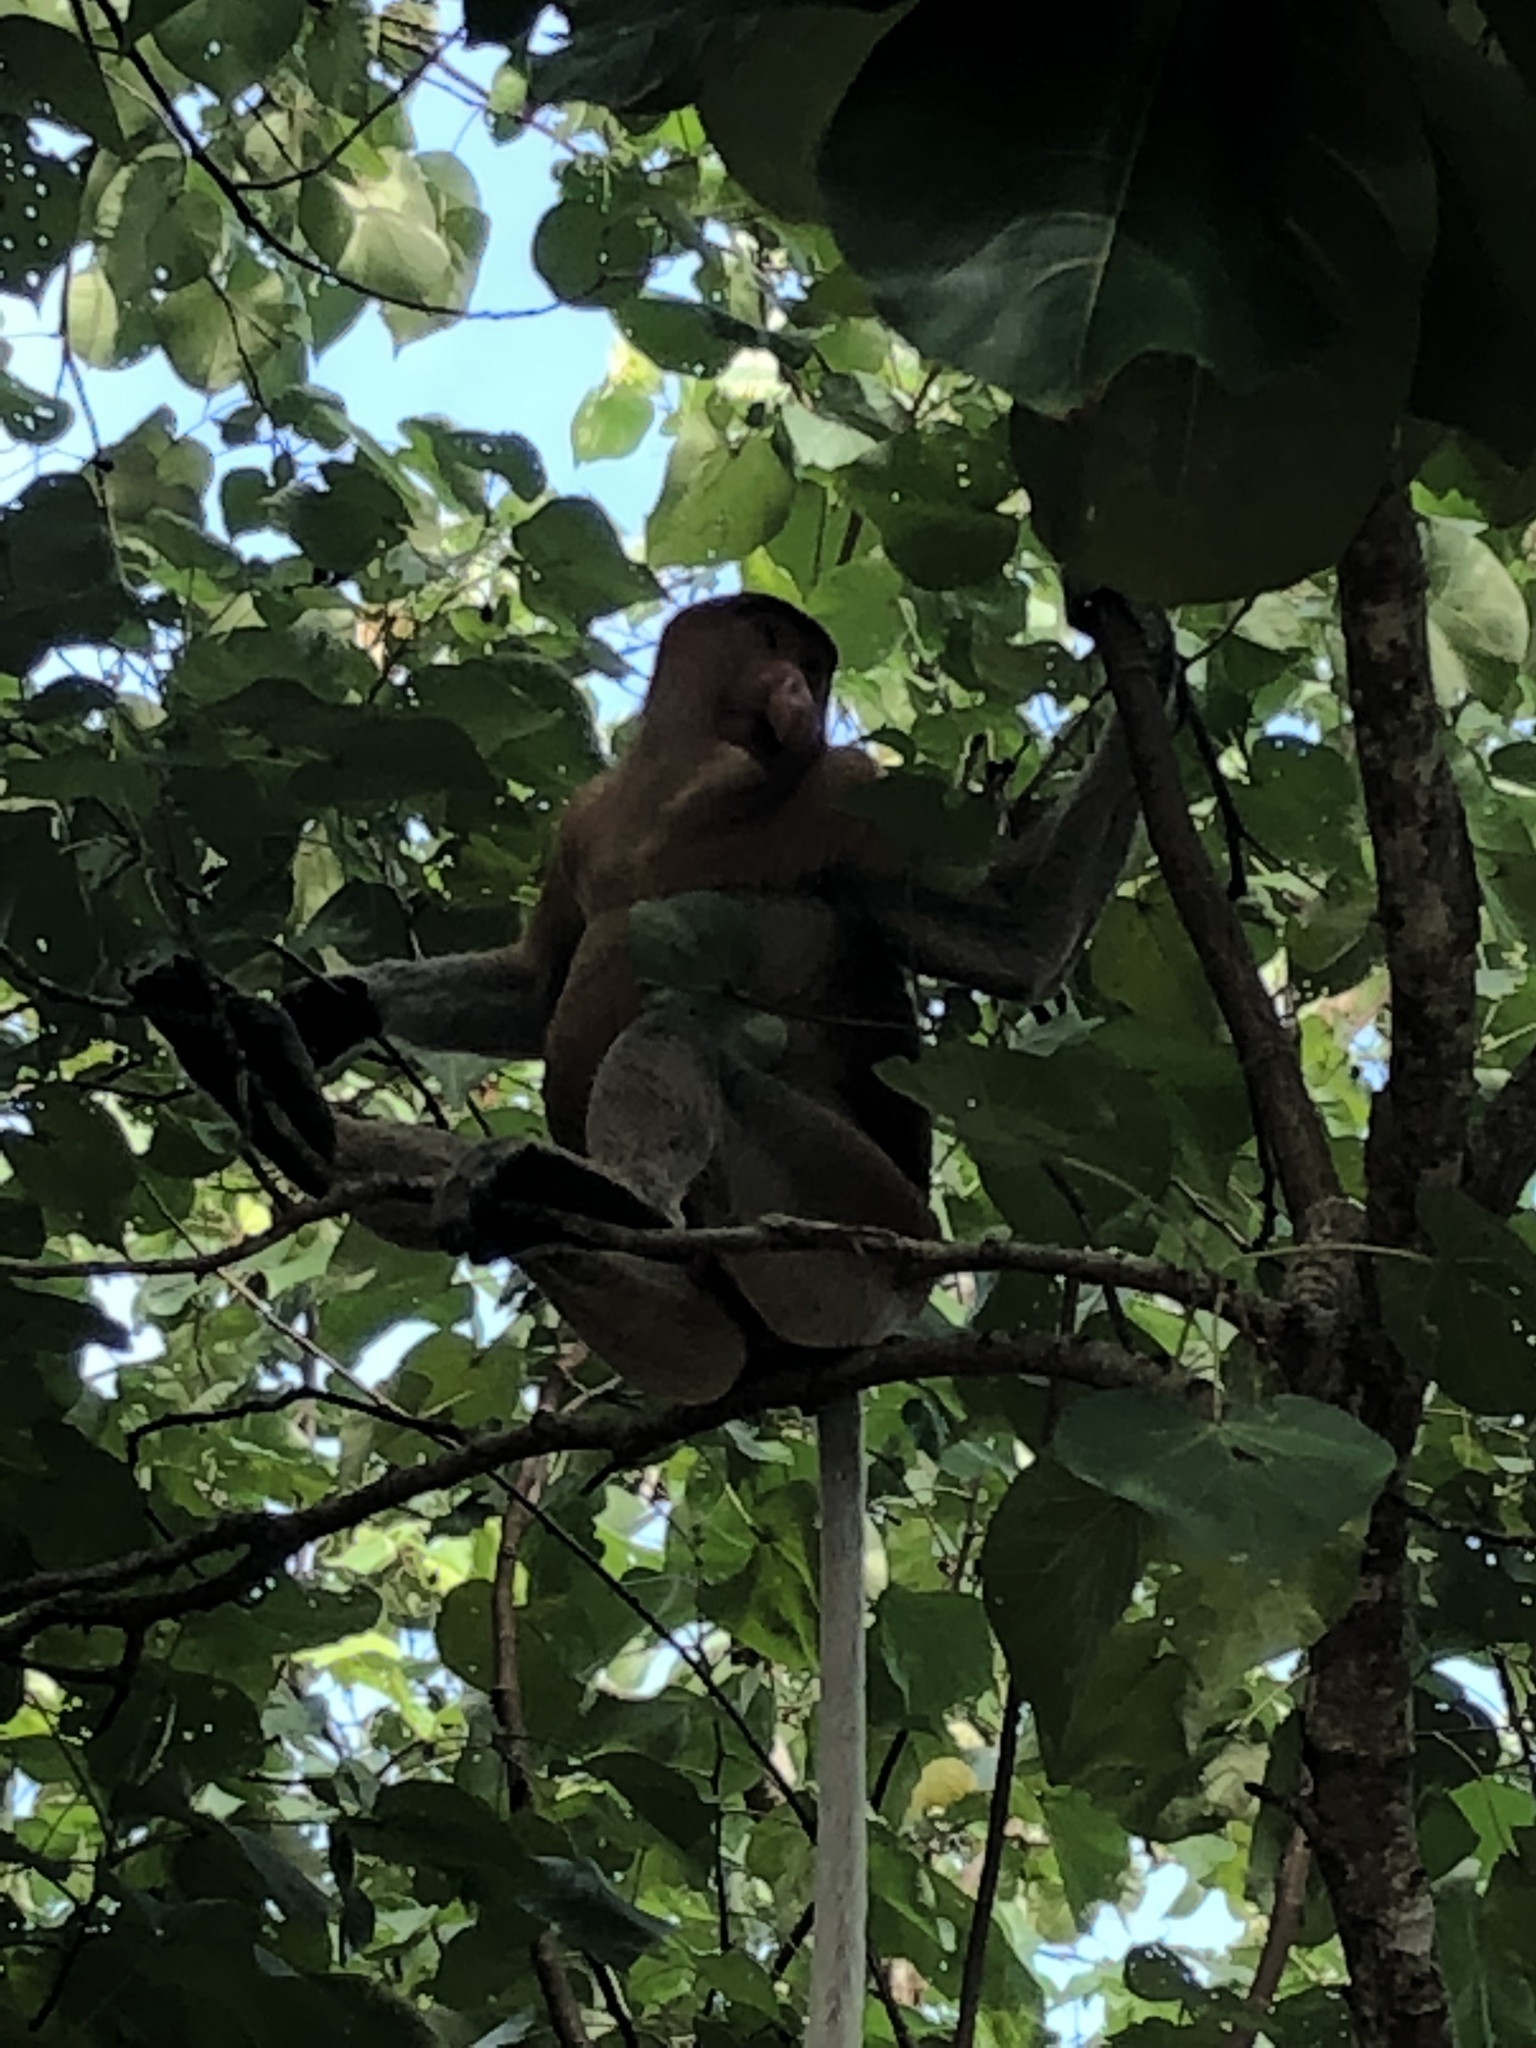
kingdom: Animalia
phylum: Chordata
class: Mammalia
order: Primates
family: Cercopithecidae
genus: Nasalis
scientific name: Nasalis larvatus
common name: Proboscis monkey
